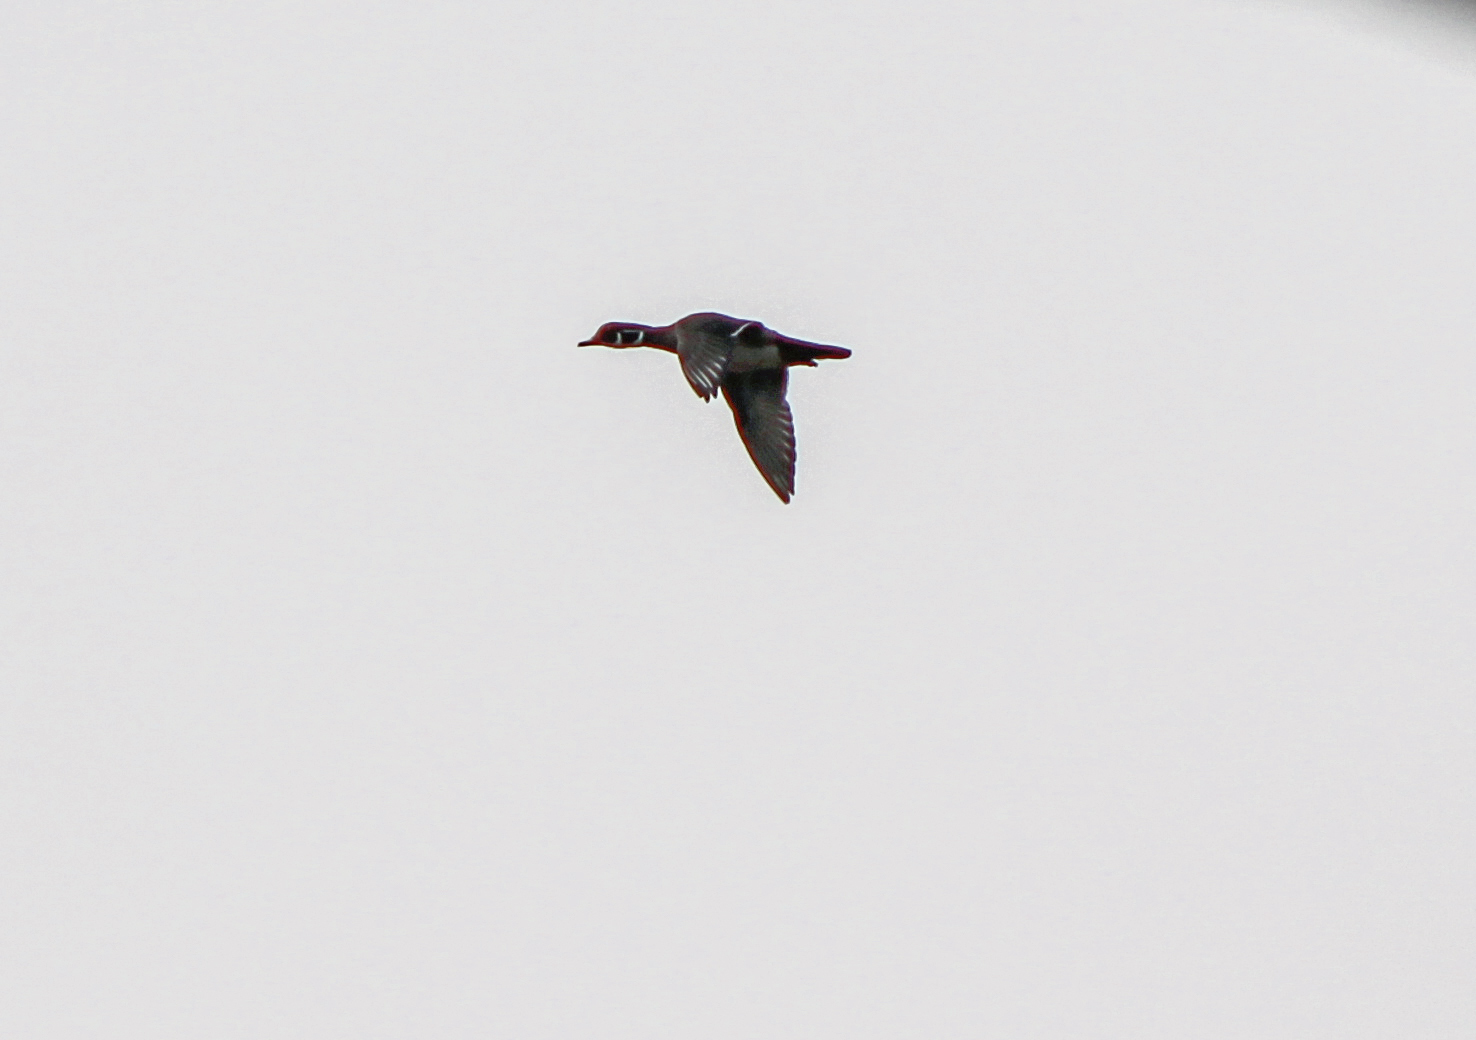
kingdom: Animalia
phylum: Chordata
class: Aves
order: Anseriformes
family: Anatidae
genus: Aix
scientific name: Aix sponsa
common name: Wood duck
